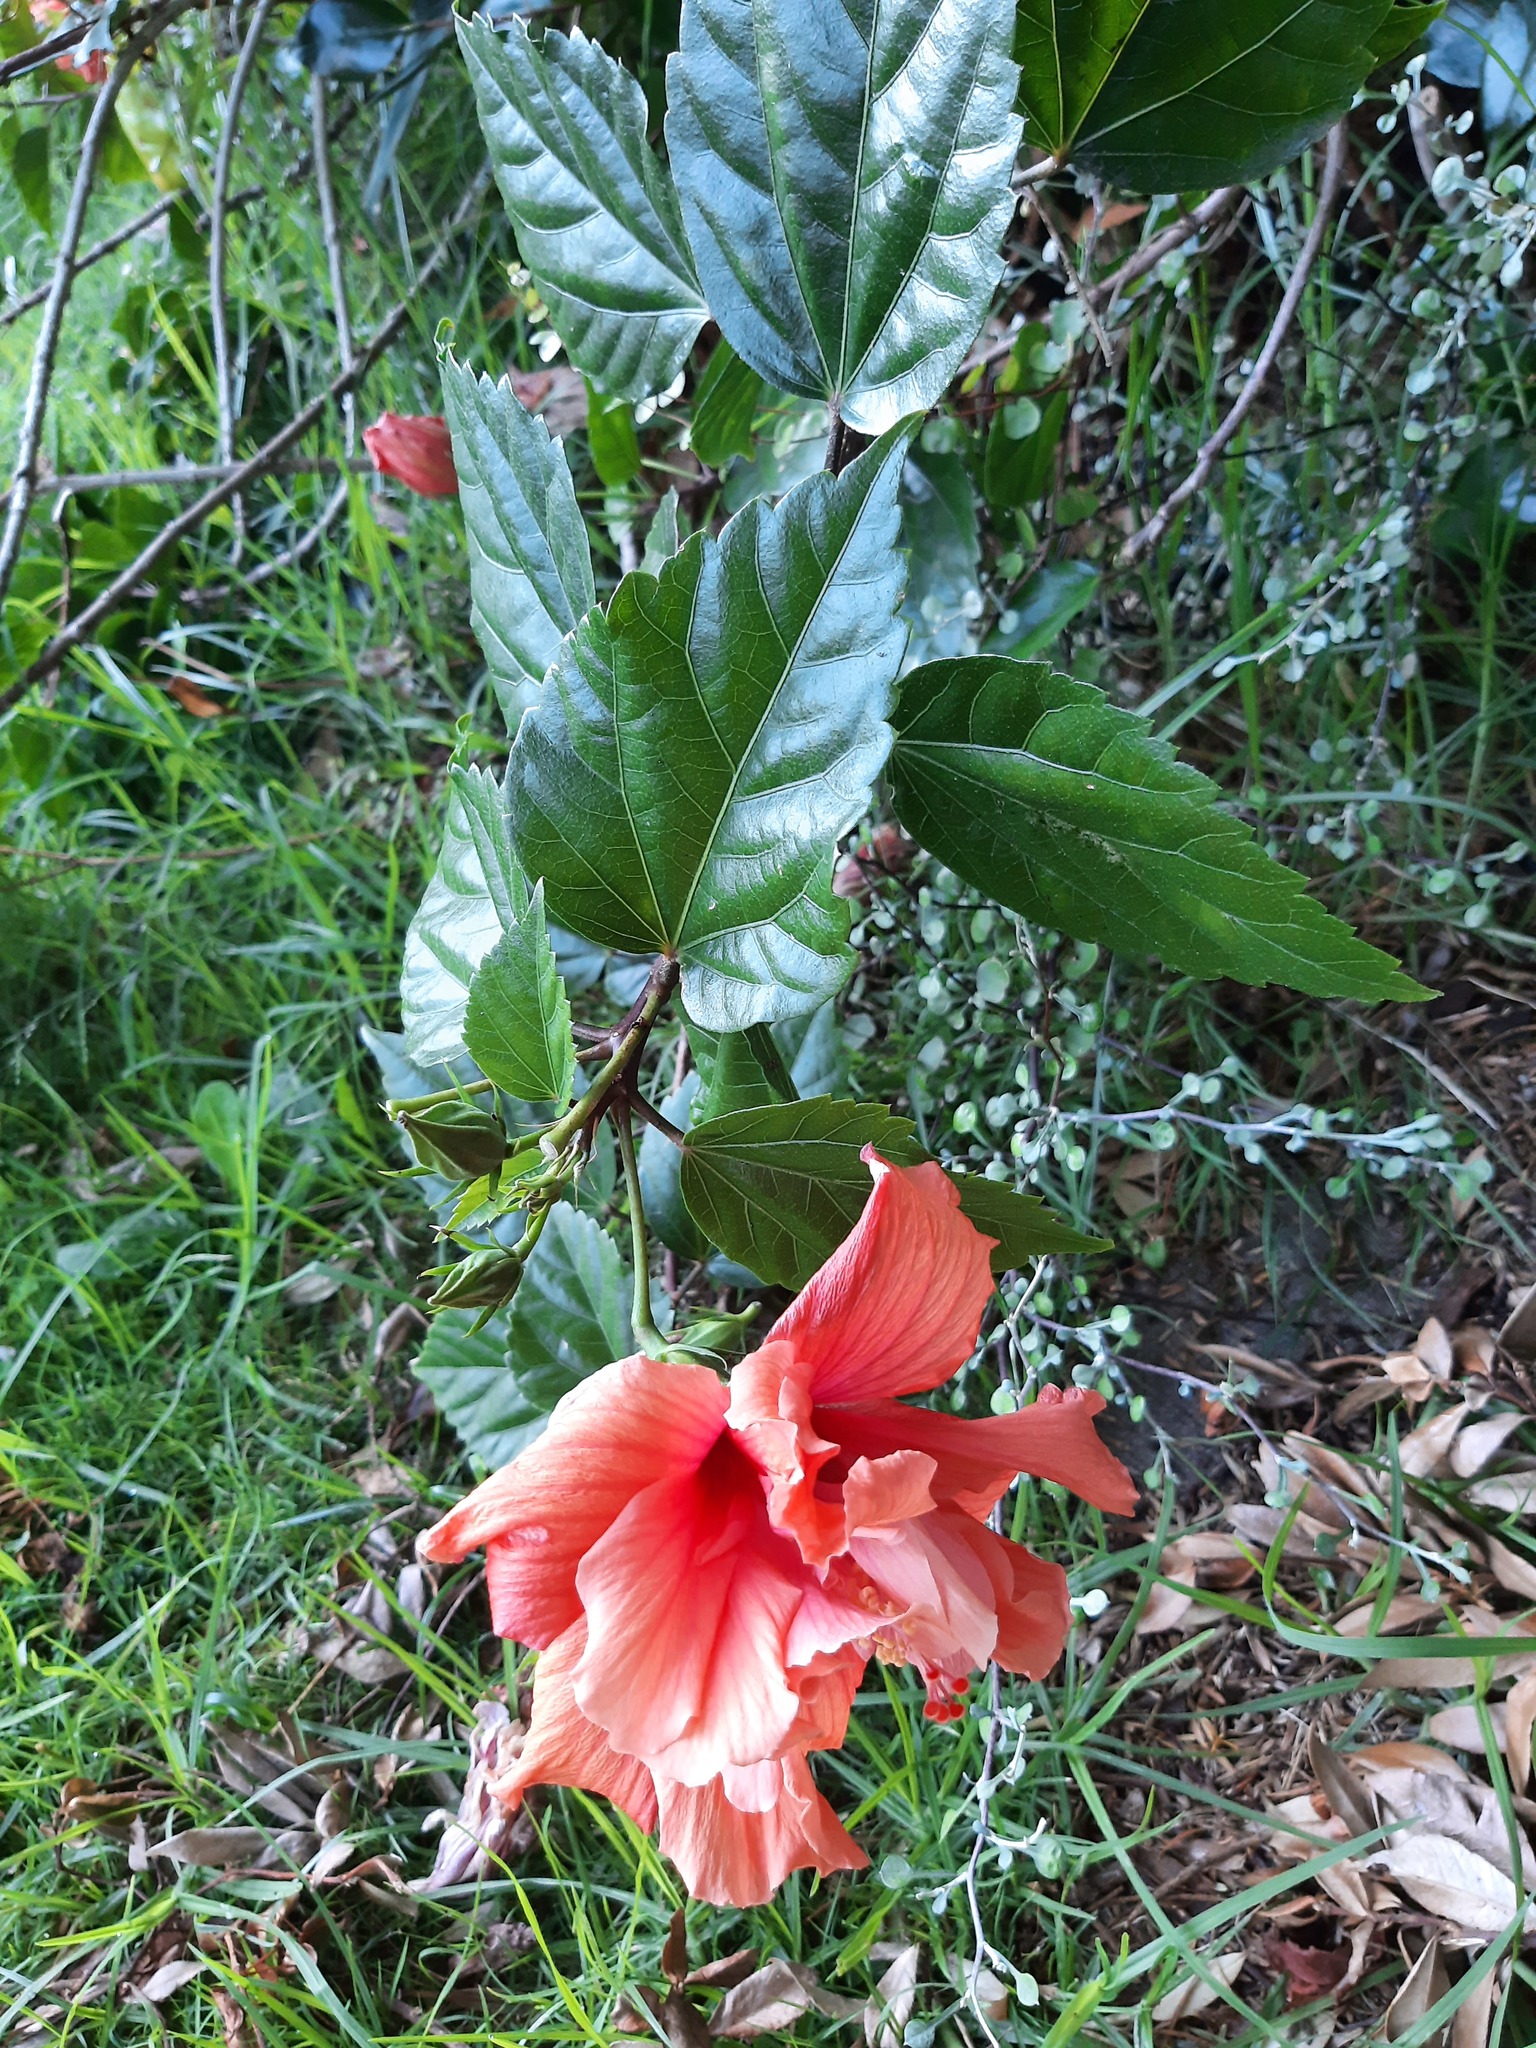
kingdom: Plantae
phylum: Tracheophyta
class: Magnoliopsida
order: Malvales
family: Malvaceae
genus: Hibiscus
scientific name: Hibiscus rosa-sinensis
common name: Hibiscus
